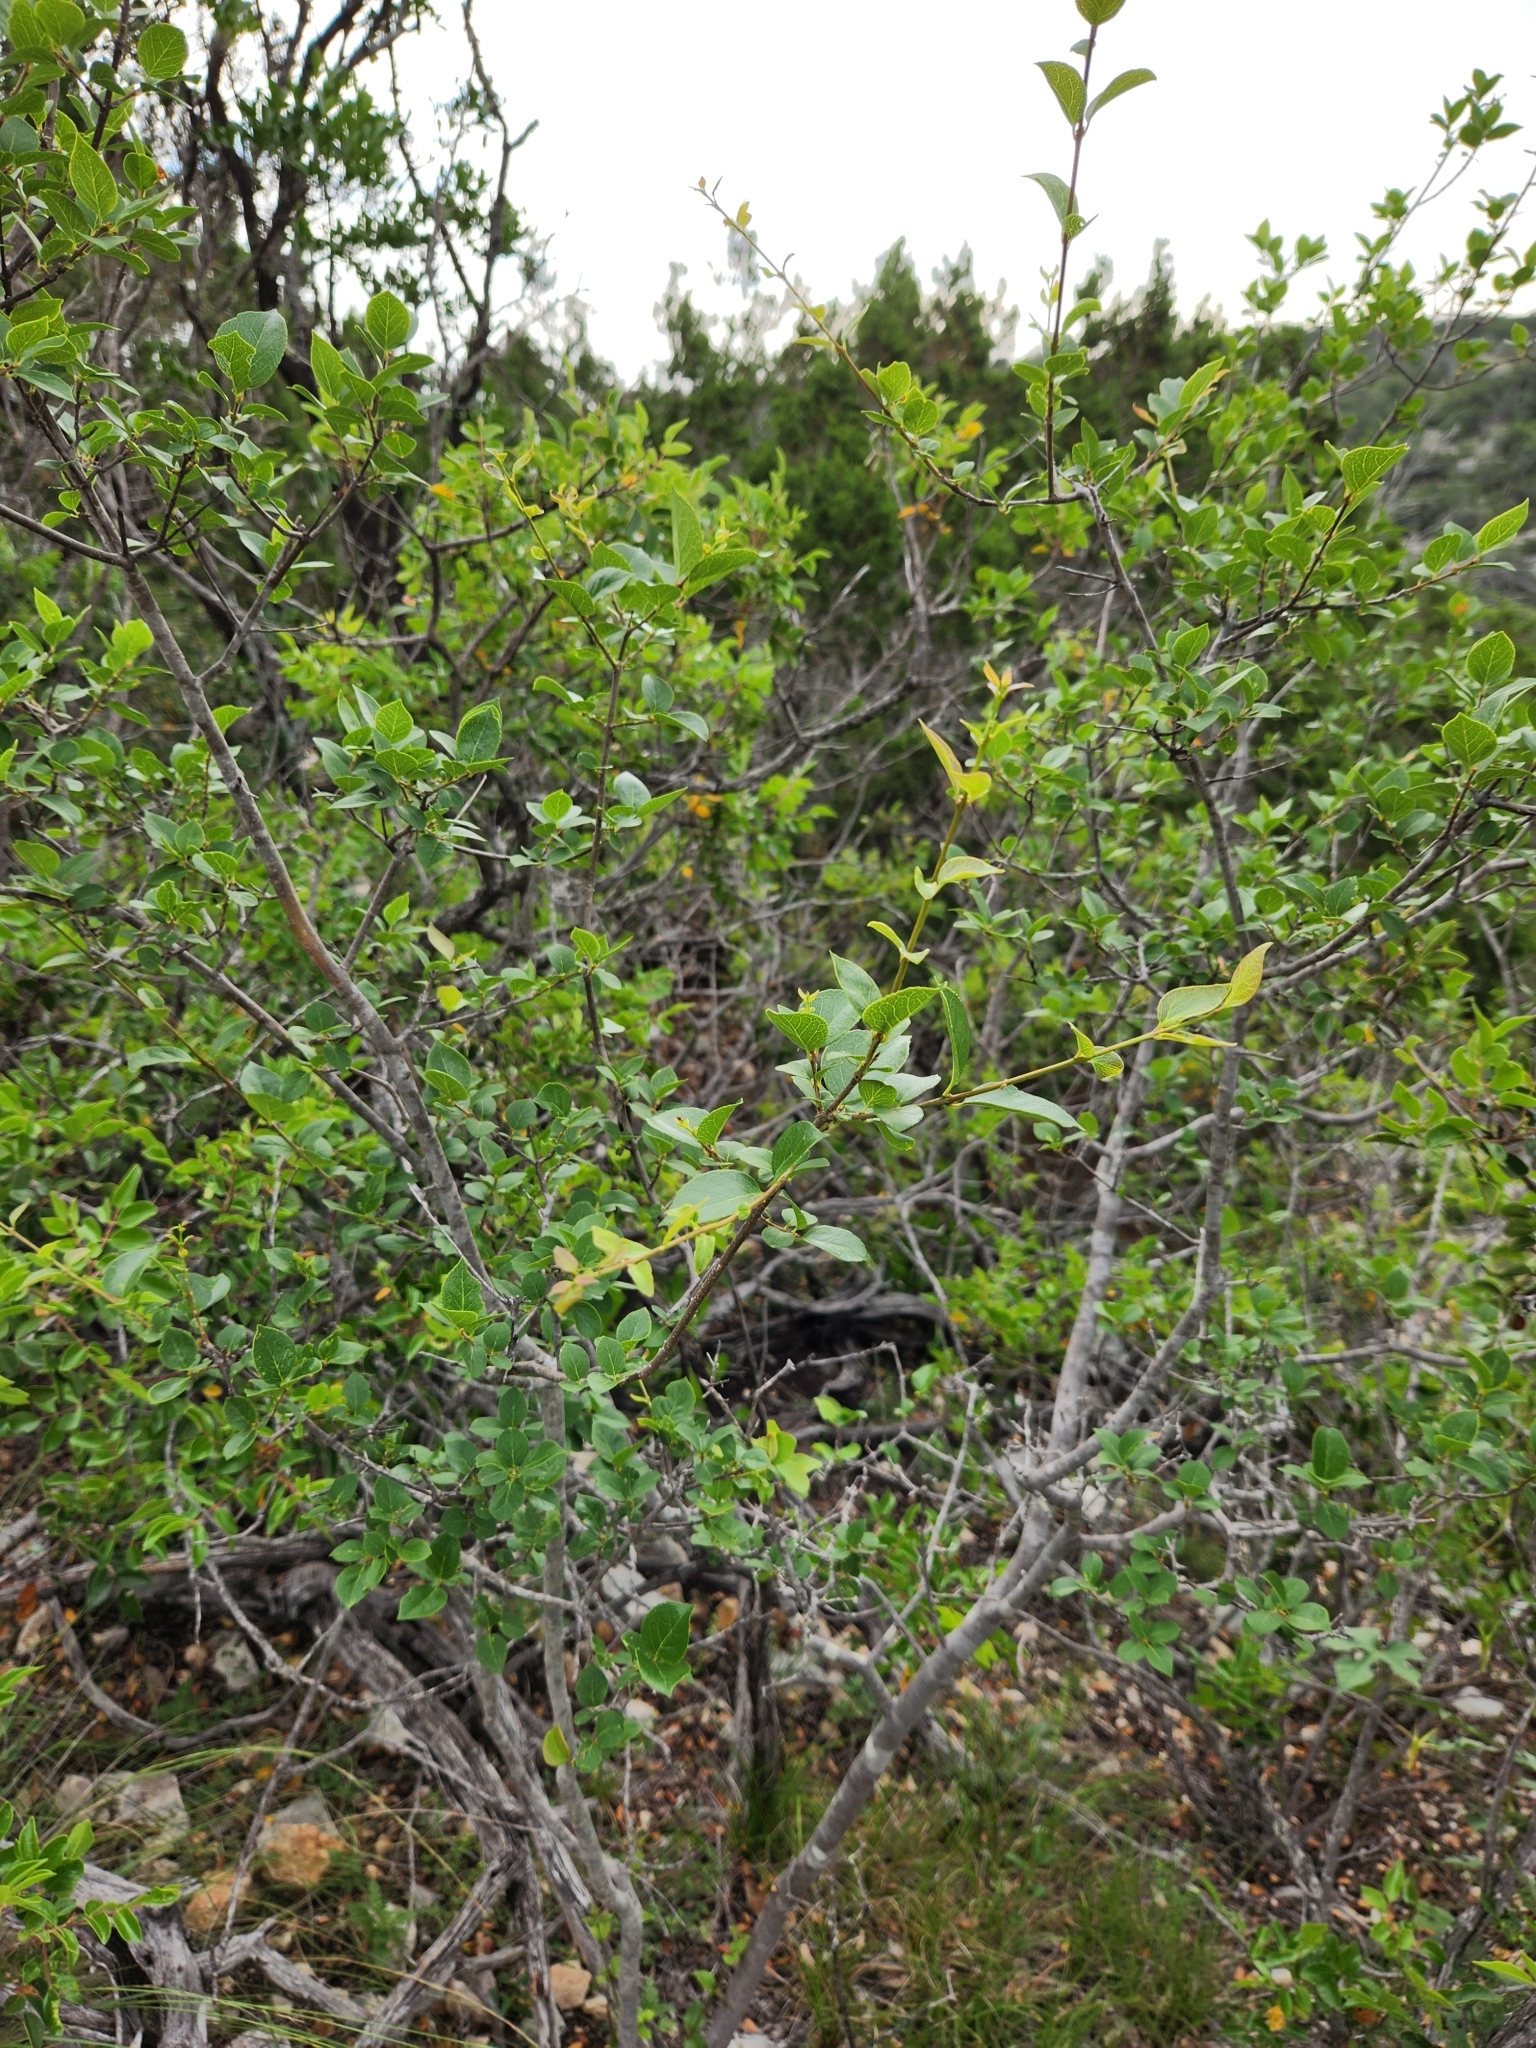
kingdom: Plantae
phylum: Tracheophyta
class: Magnoliopsida
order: Lamiales
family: Oleaceae
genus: Forestiera
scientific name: Forestiera reticulata
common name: Netleaf swamp-privet
